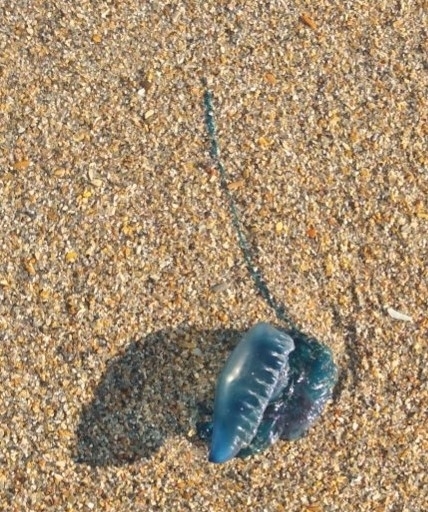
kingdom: Animalia
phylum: Cnidaria
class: Hydrozoa
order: Siphonophorae
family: Physaliidae
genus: Physalia
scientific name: Physalia physalis
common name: Portuguese man-of-war
